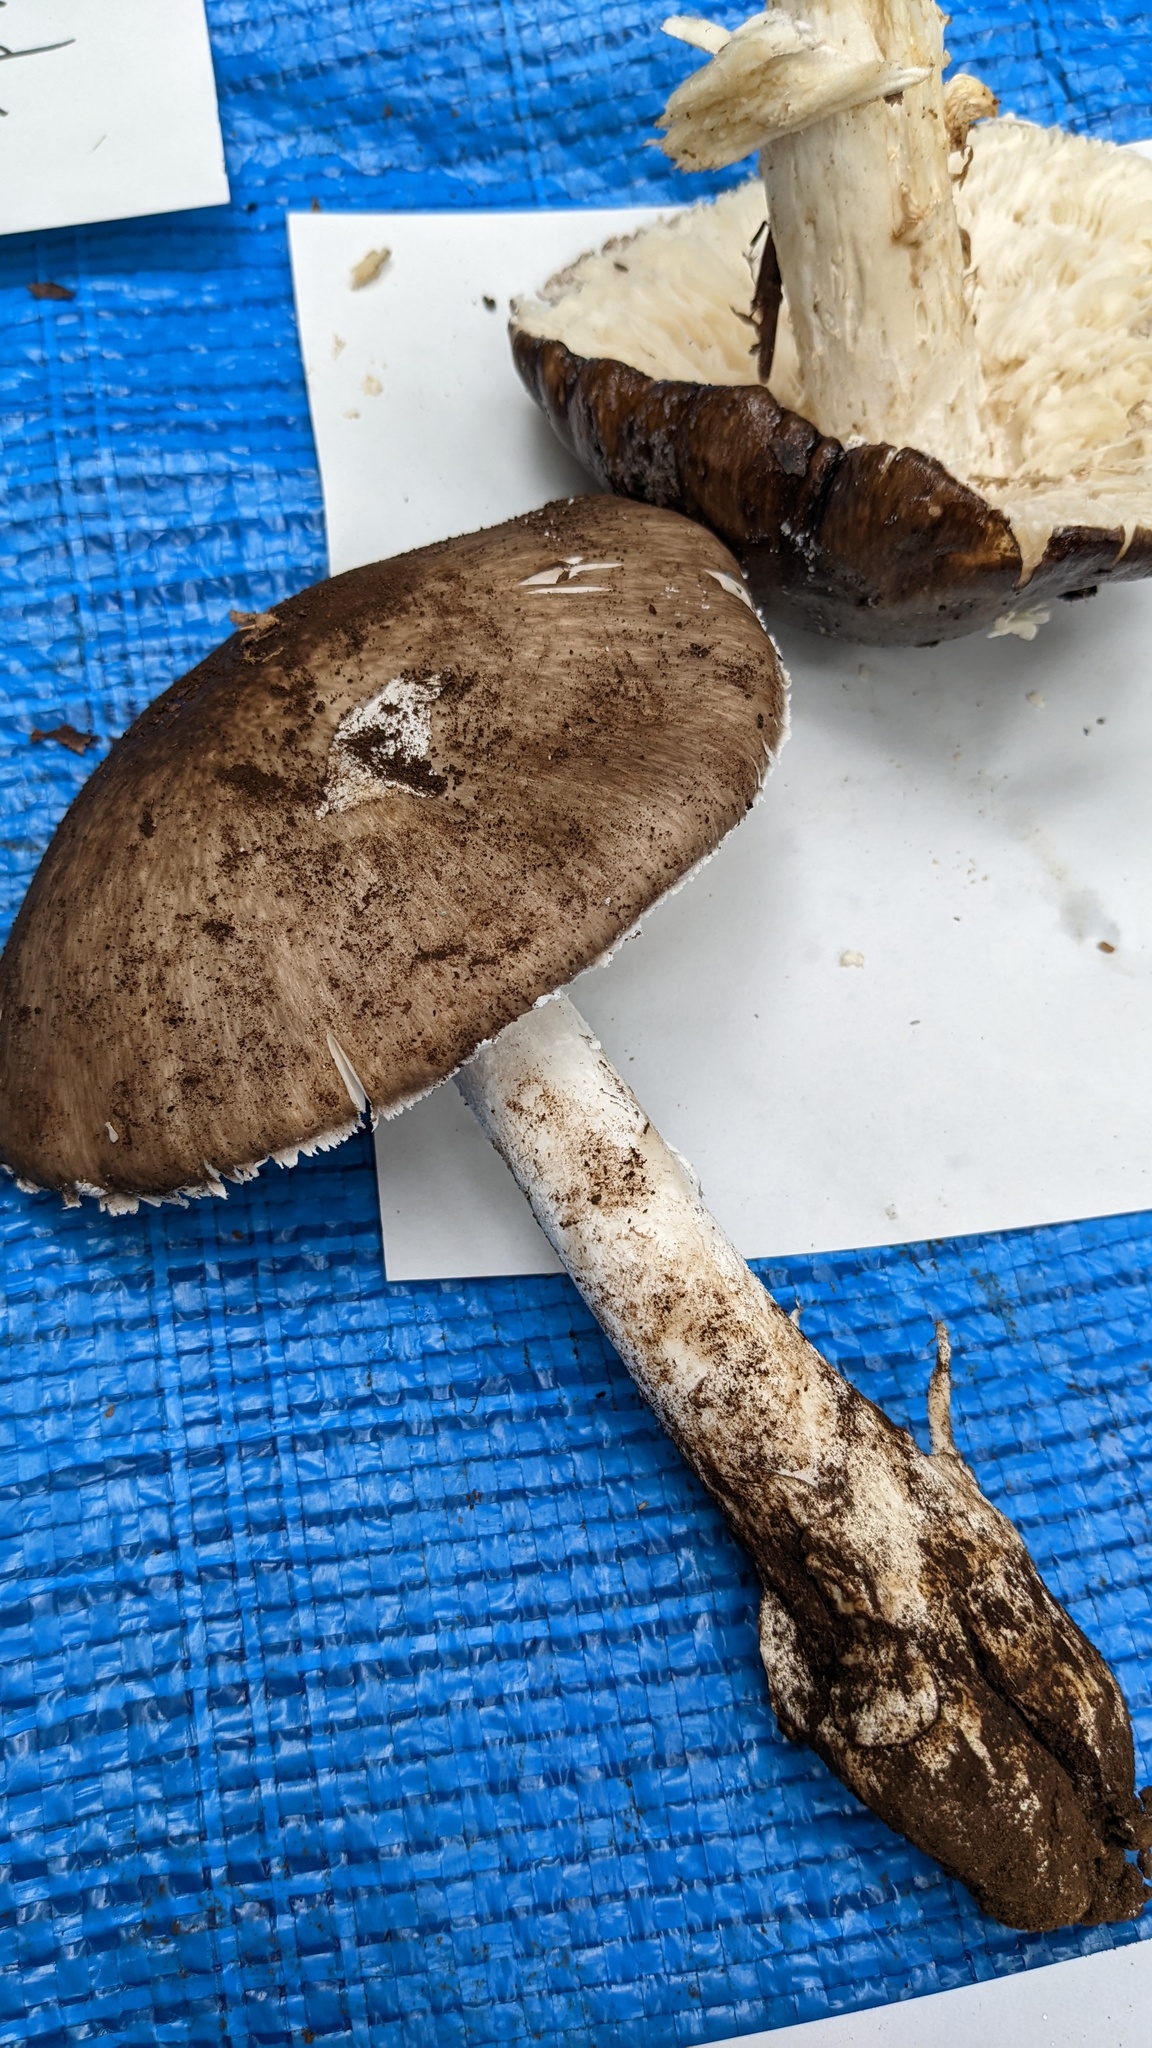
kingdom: Fungi
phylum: Basidiomycota
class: Agaricomycetes
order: Agaricales
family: Amanitaceae
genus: Amanita
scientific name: Amanita pseudoporphyria
